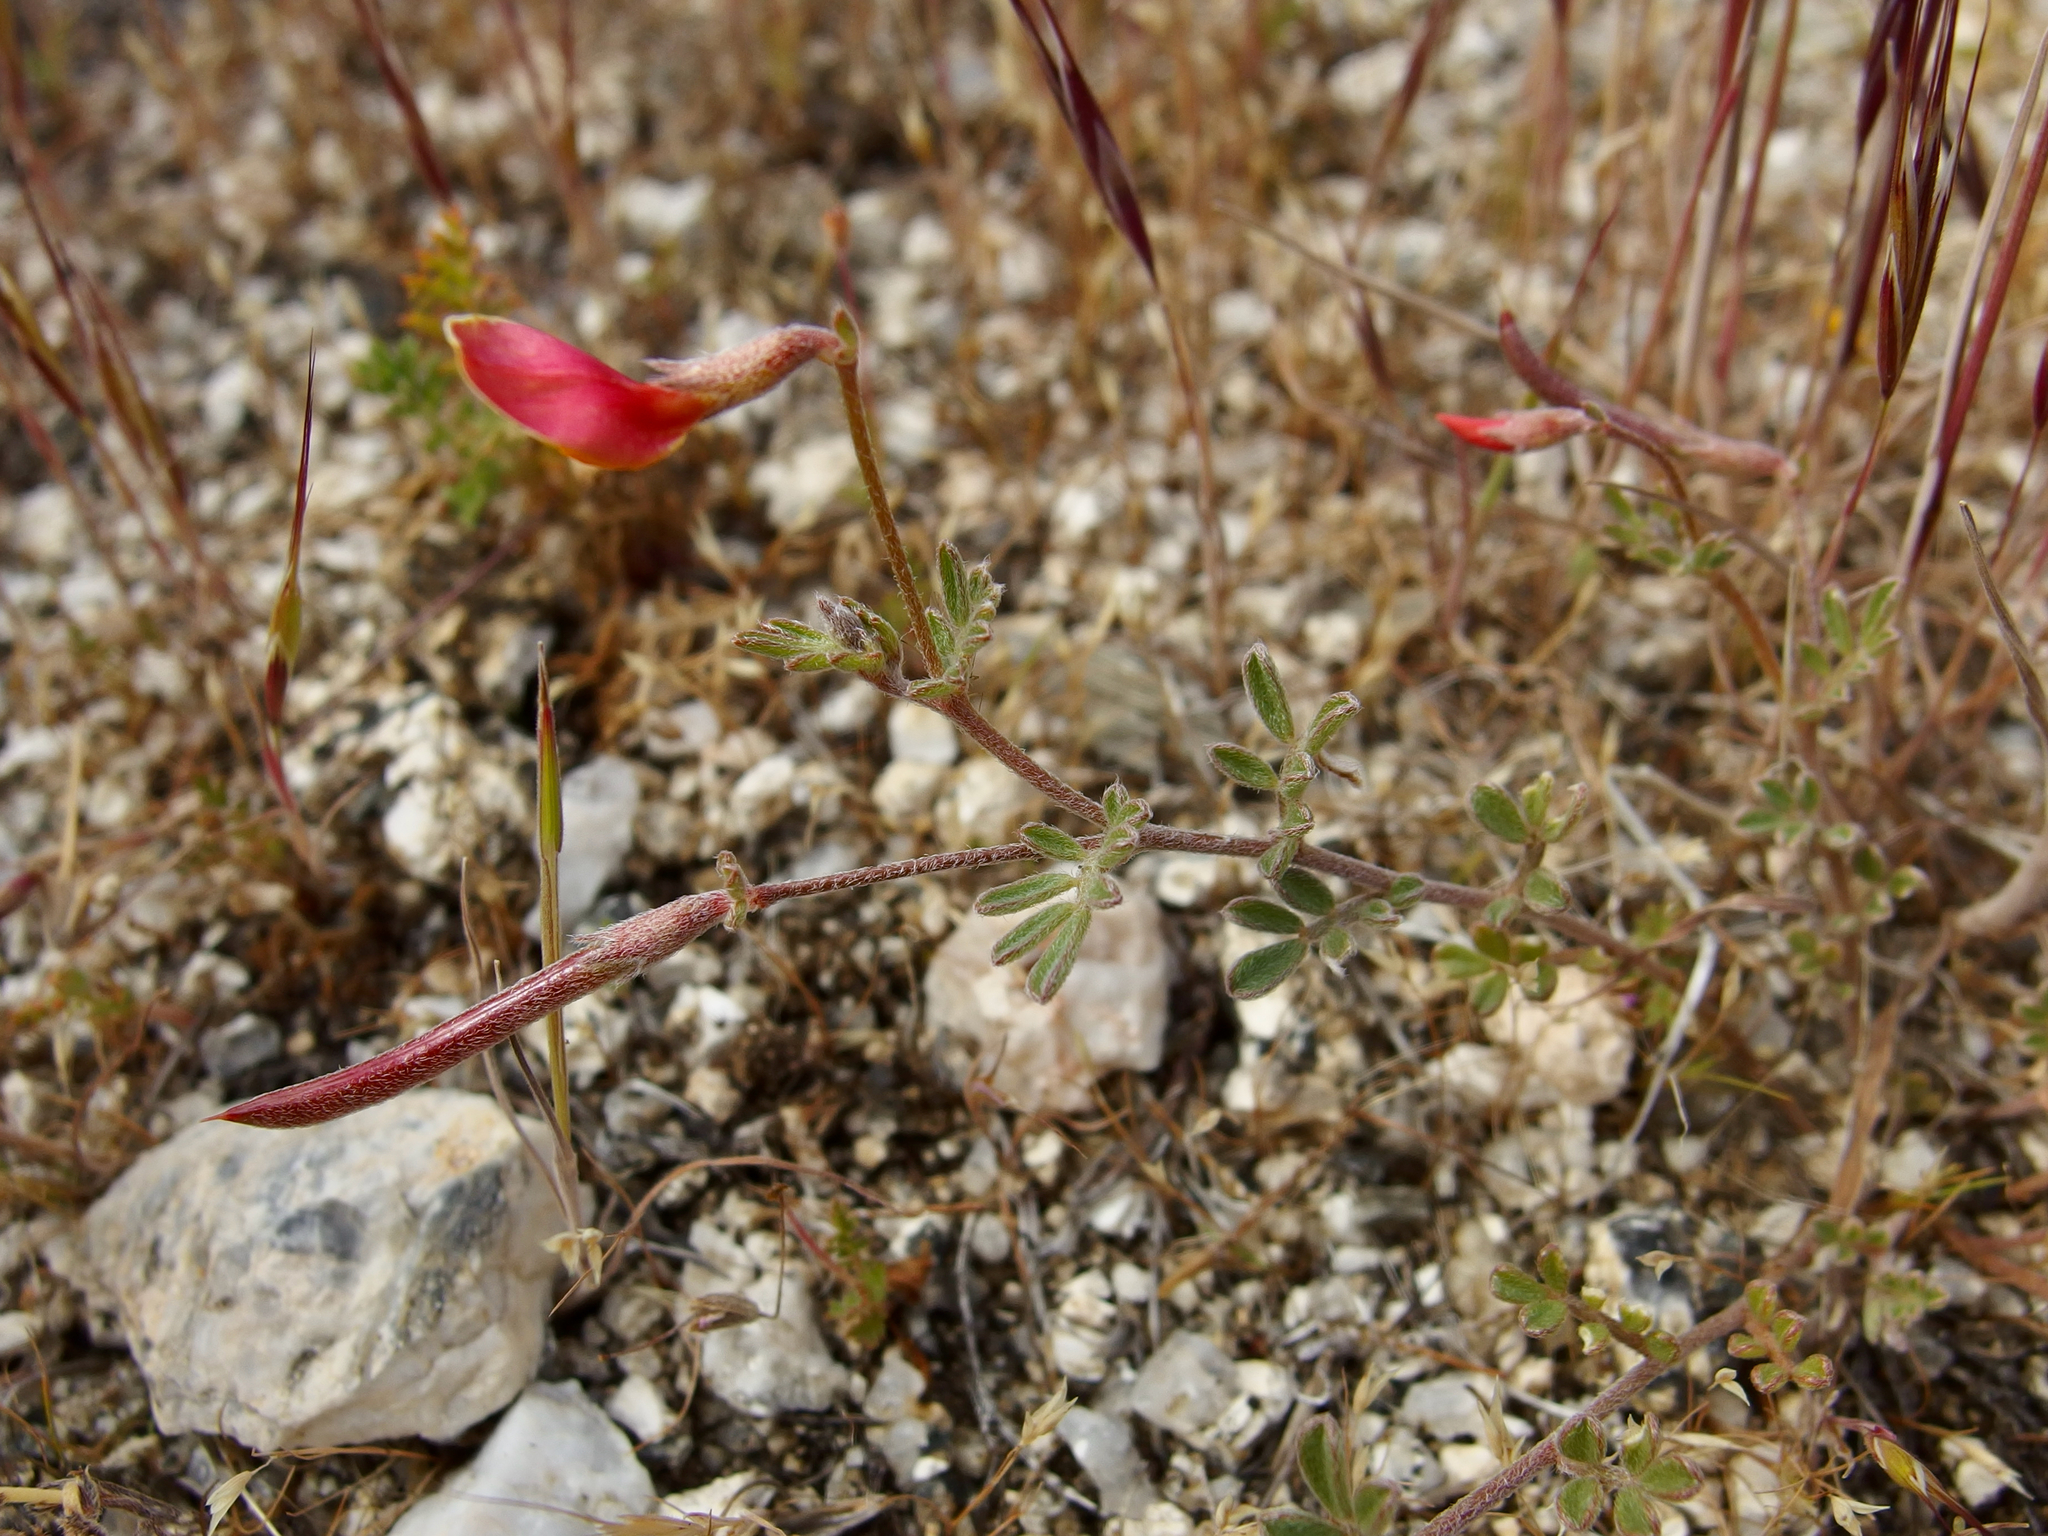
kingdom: Plantae
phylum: Tracheophyta
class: Magnoliopsida
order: Fabales
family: Fabaceae
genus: Acmispon
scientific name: Acmispon strigosus
